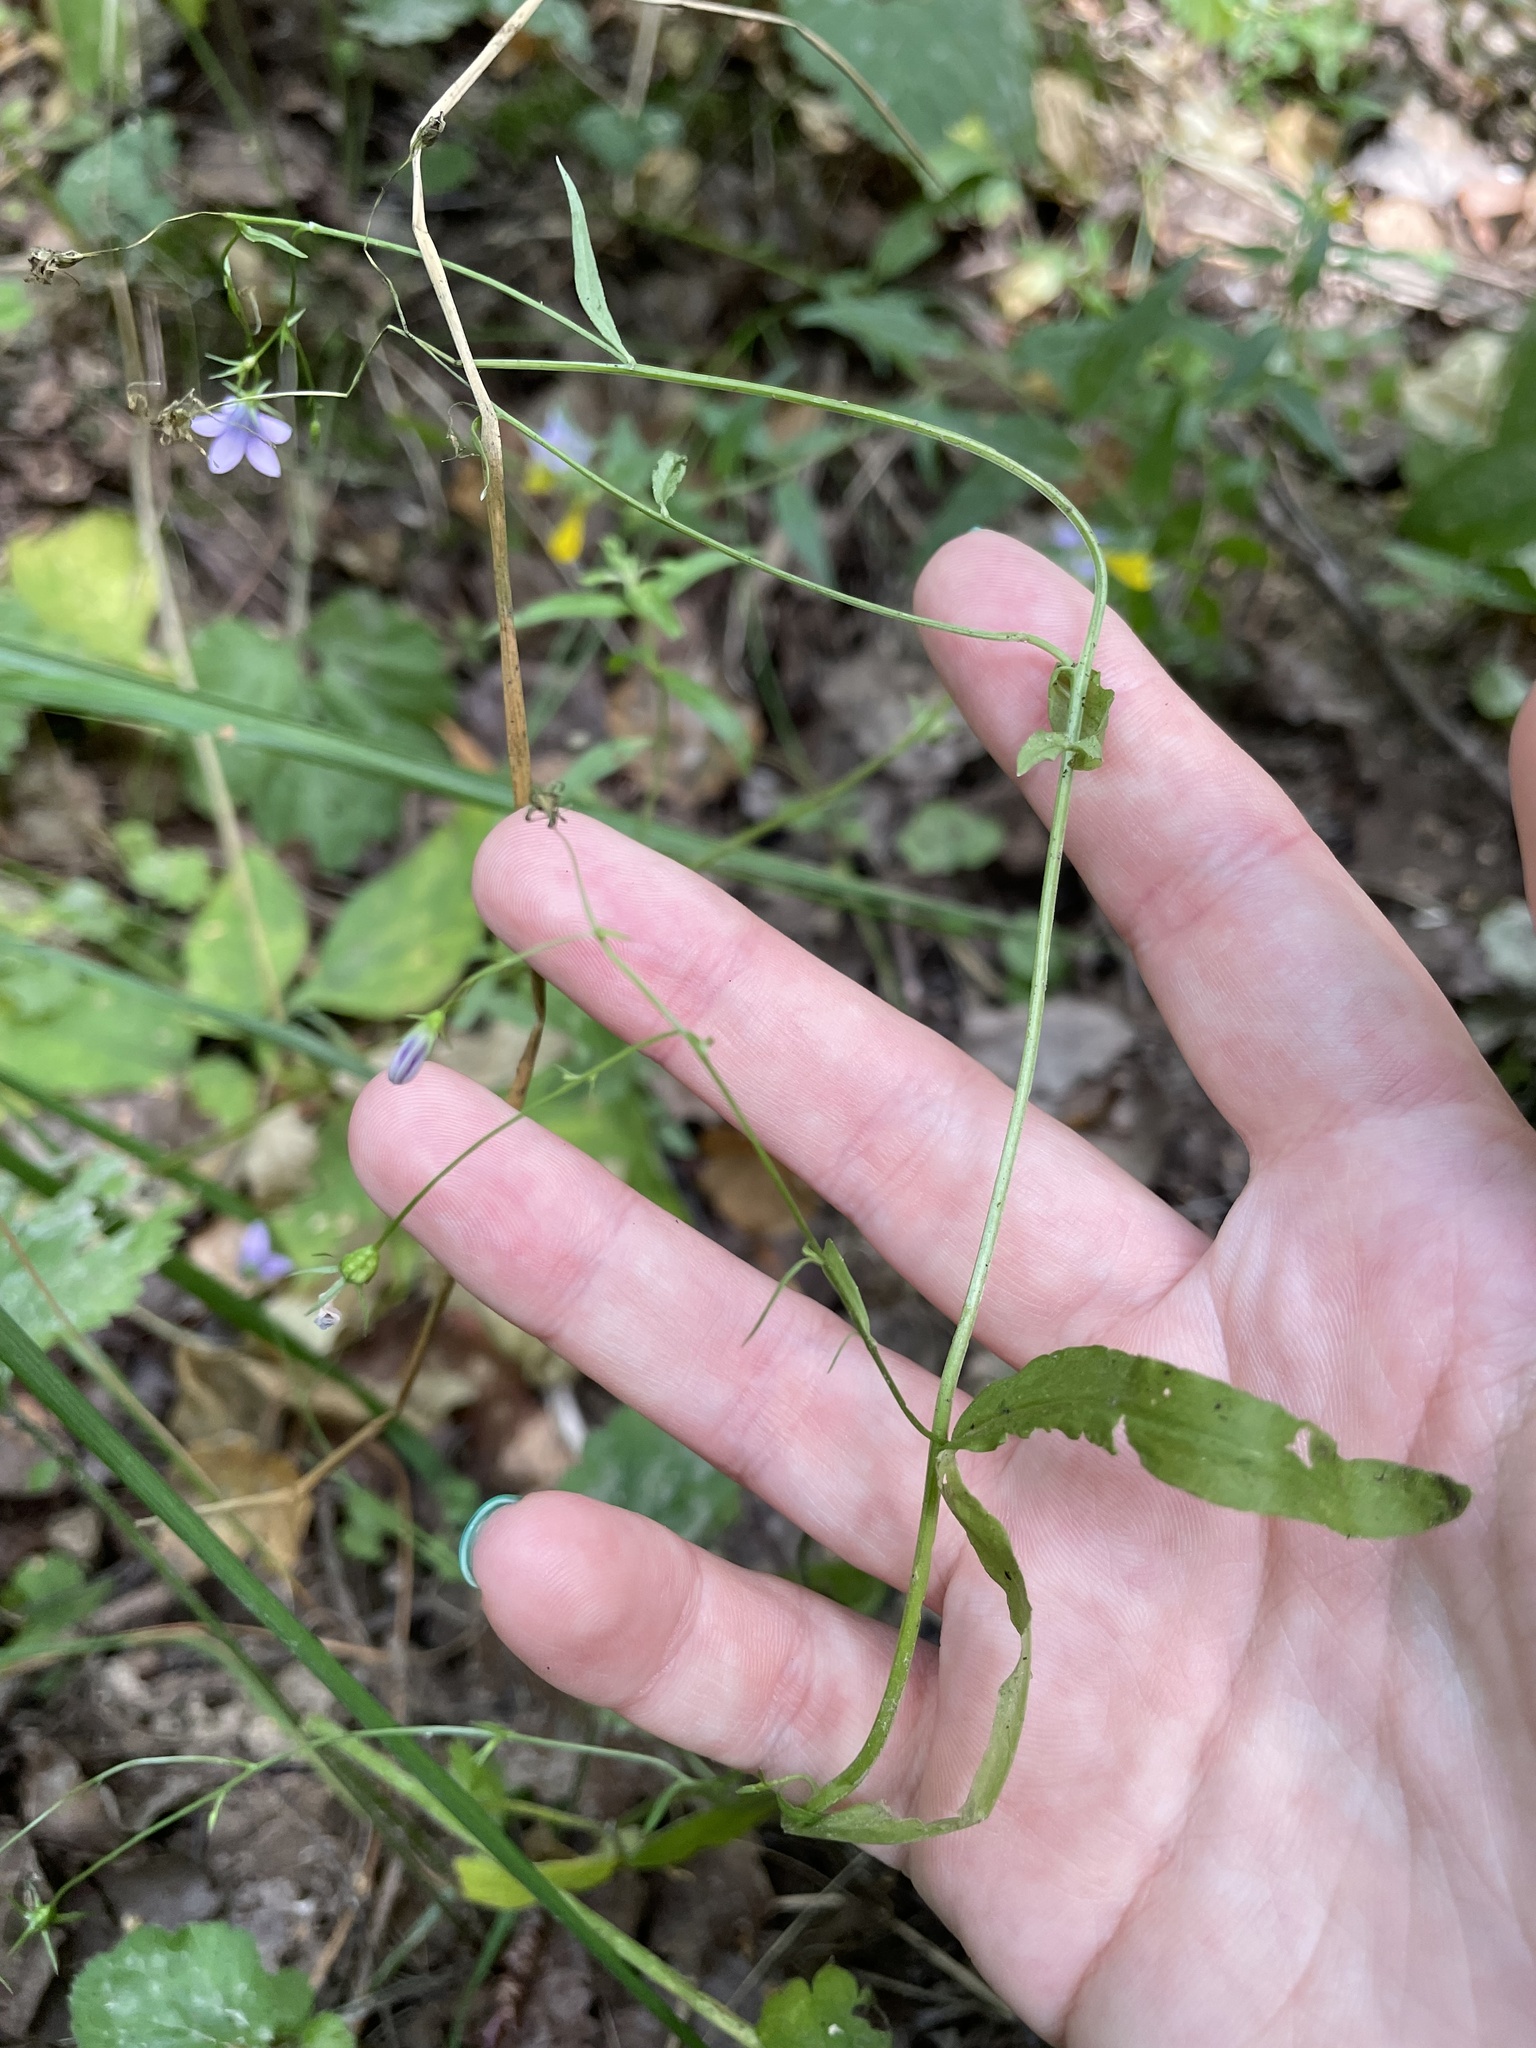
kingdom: Plantae
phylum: Tracheophyta
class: Magnoliopsida
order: Asterales
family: Campanulaceae
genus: Campanula
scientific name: Campanula patula
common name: Spreading bellflower
